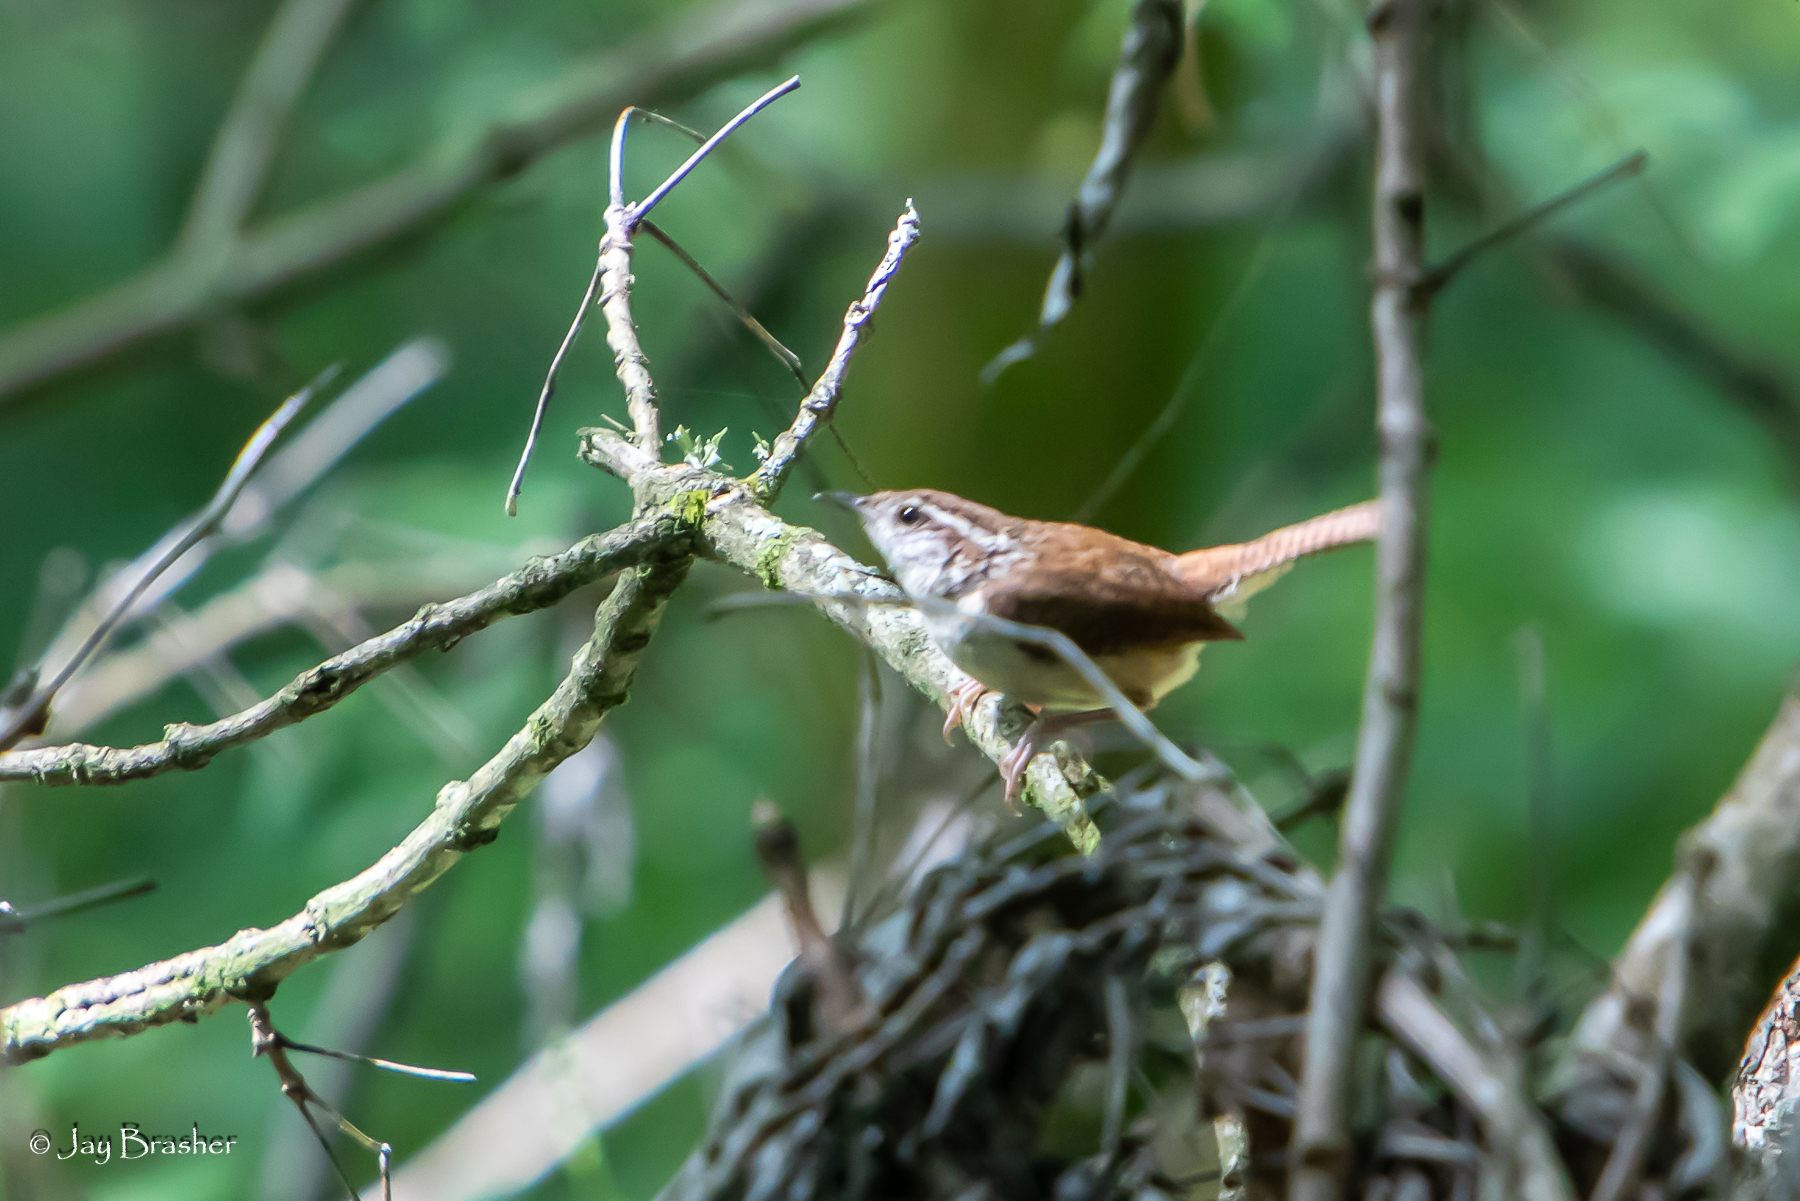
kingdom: Animalia
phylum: Chordata
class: Aves
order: Passeriformes
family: Troglodytidae
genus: Thryothorus
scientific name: Thryothorus ludovicianus
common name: Carolina wren
